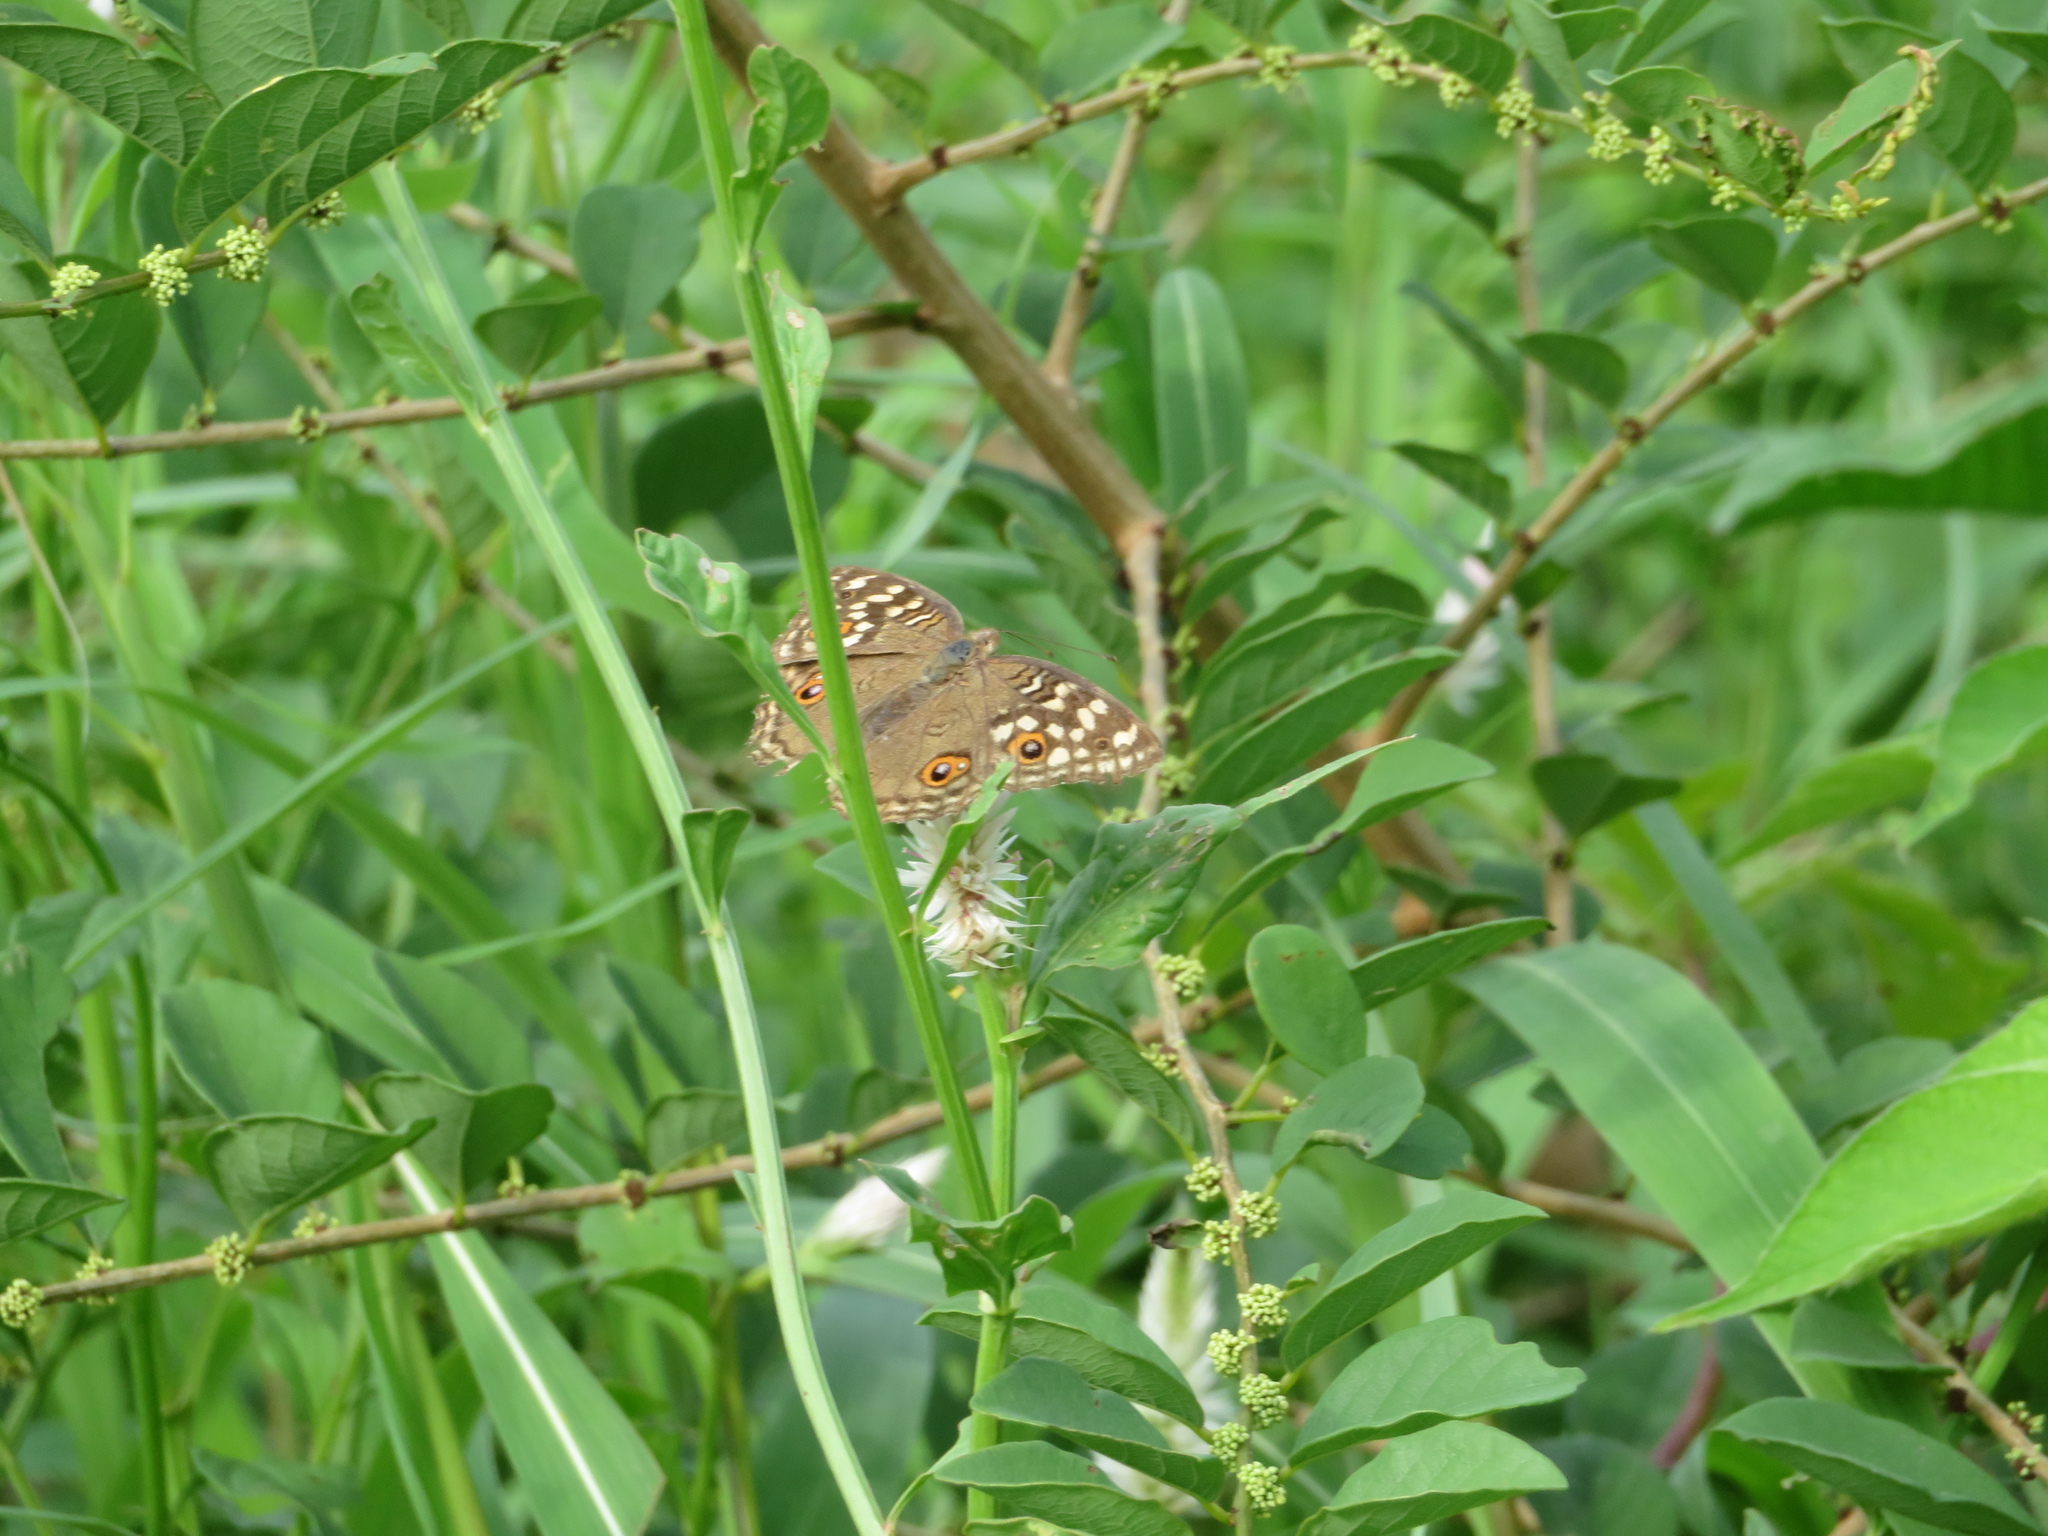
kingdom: Animalia
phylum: Arthropoda
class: Insecta
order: Lepidoptera
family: Nymphalidae
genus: Junonia
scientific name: Junonia lemonias
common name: Lemon pansy
